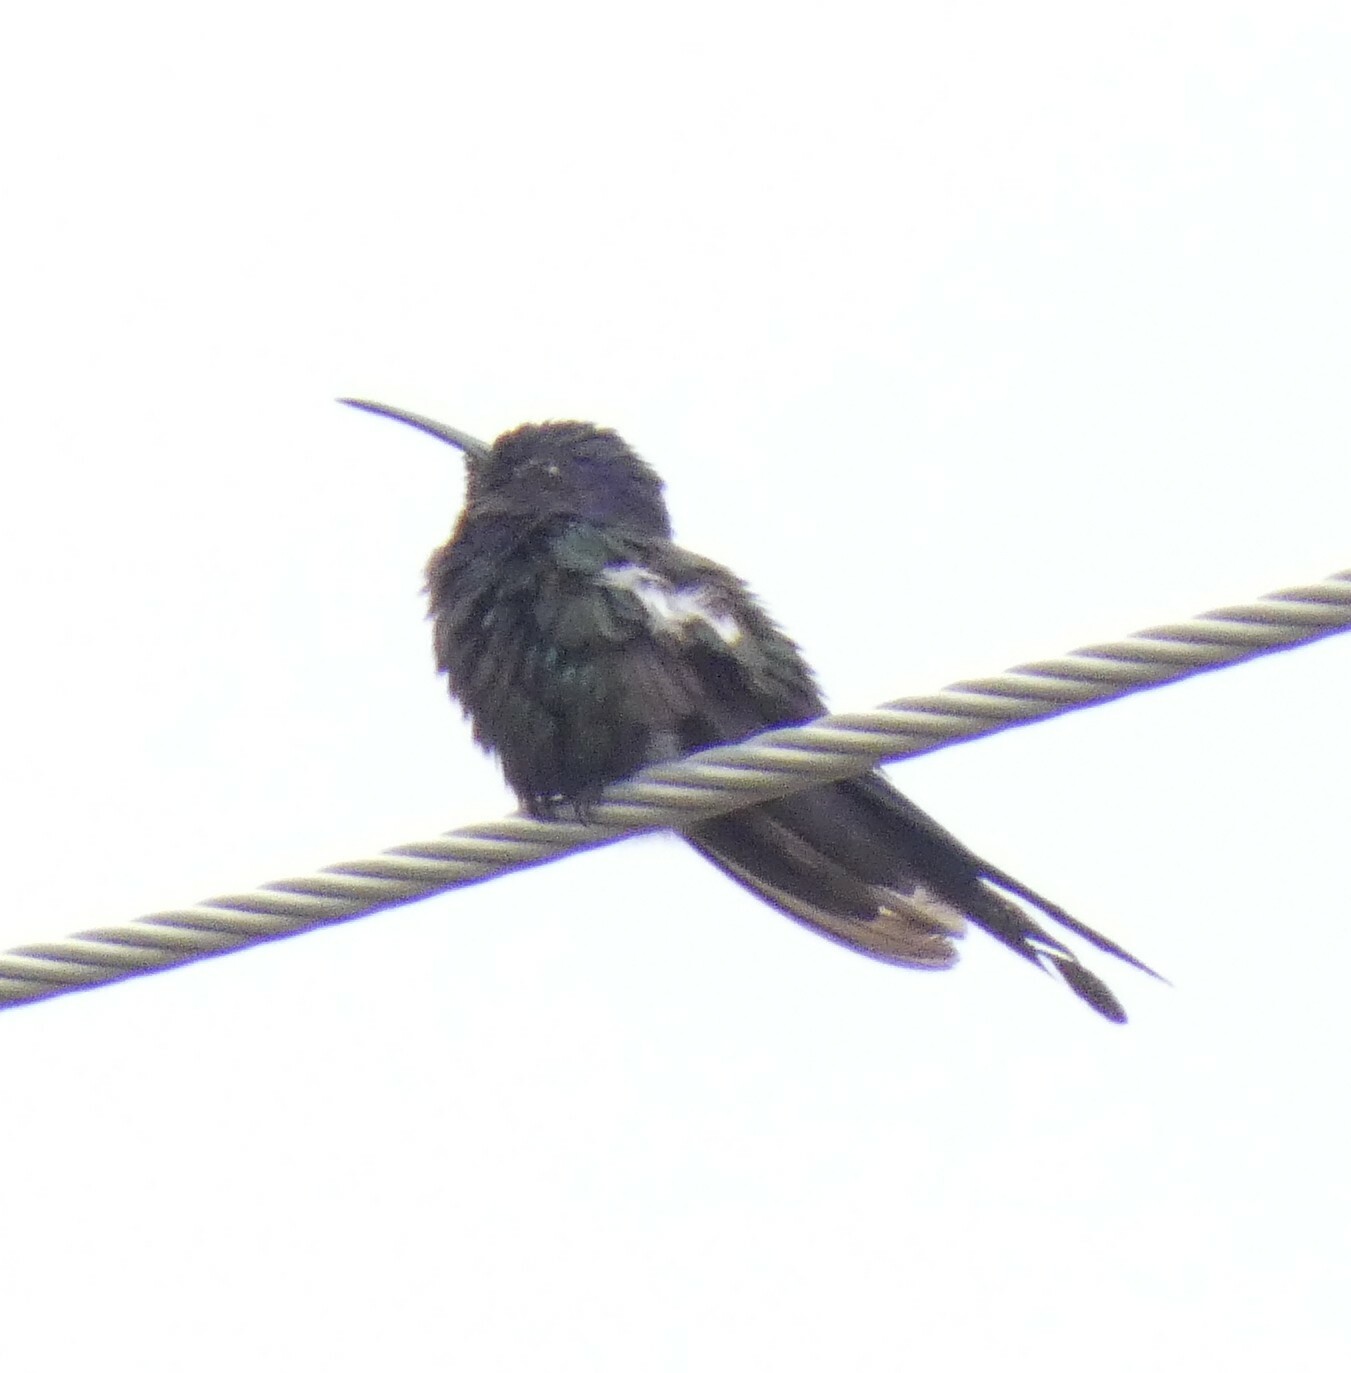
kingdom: Animalia
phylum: Chordata
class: Aves
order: Apodiformes
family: Trochilidae
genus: Eupetomena
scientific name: Eupetomena macroura
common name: Swallow-tailed hummingbird
